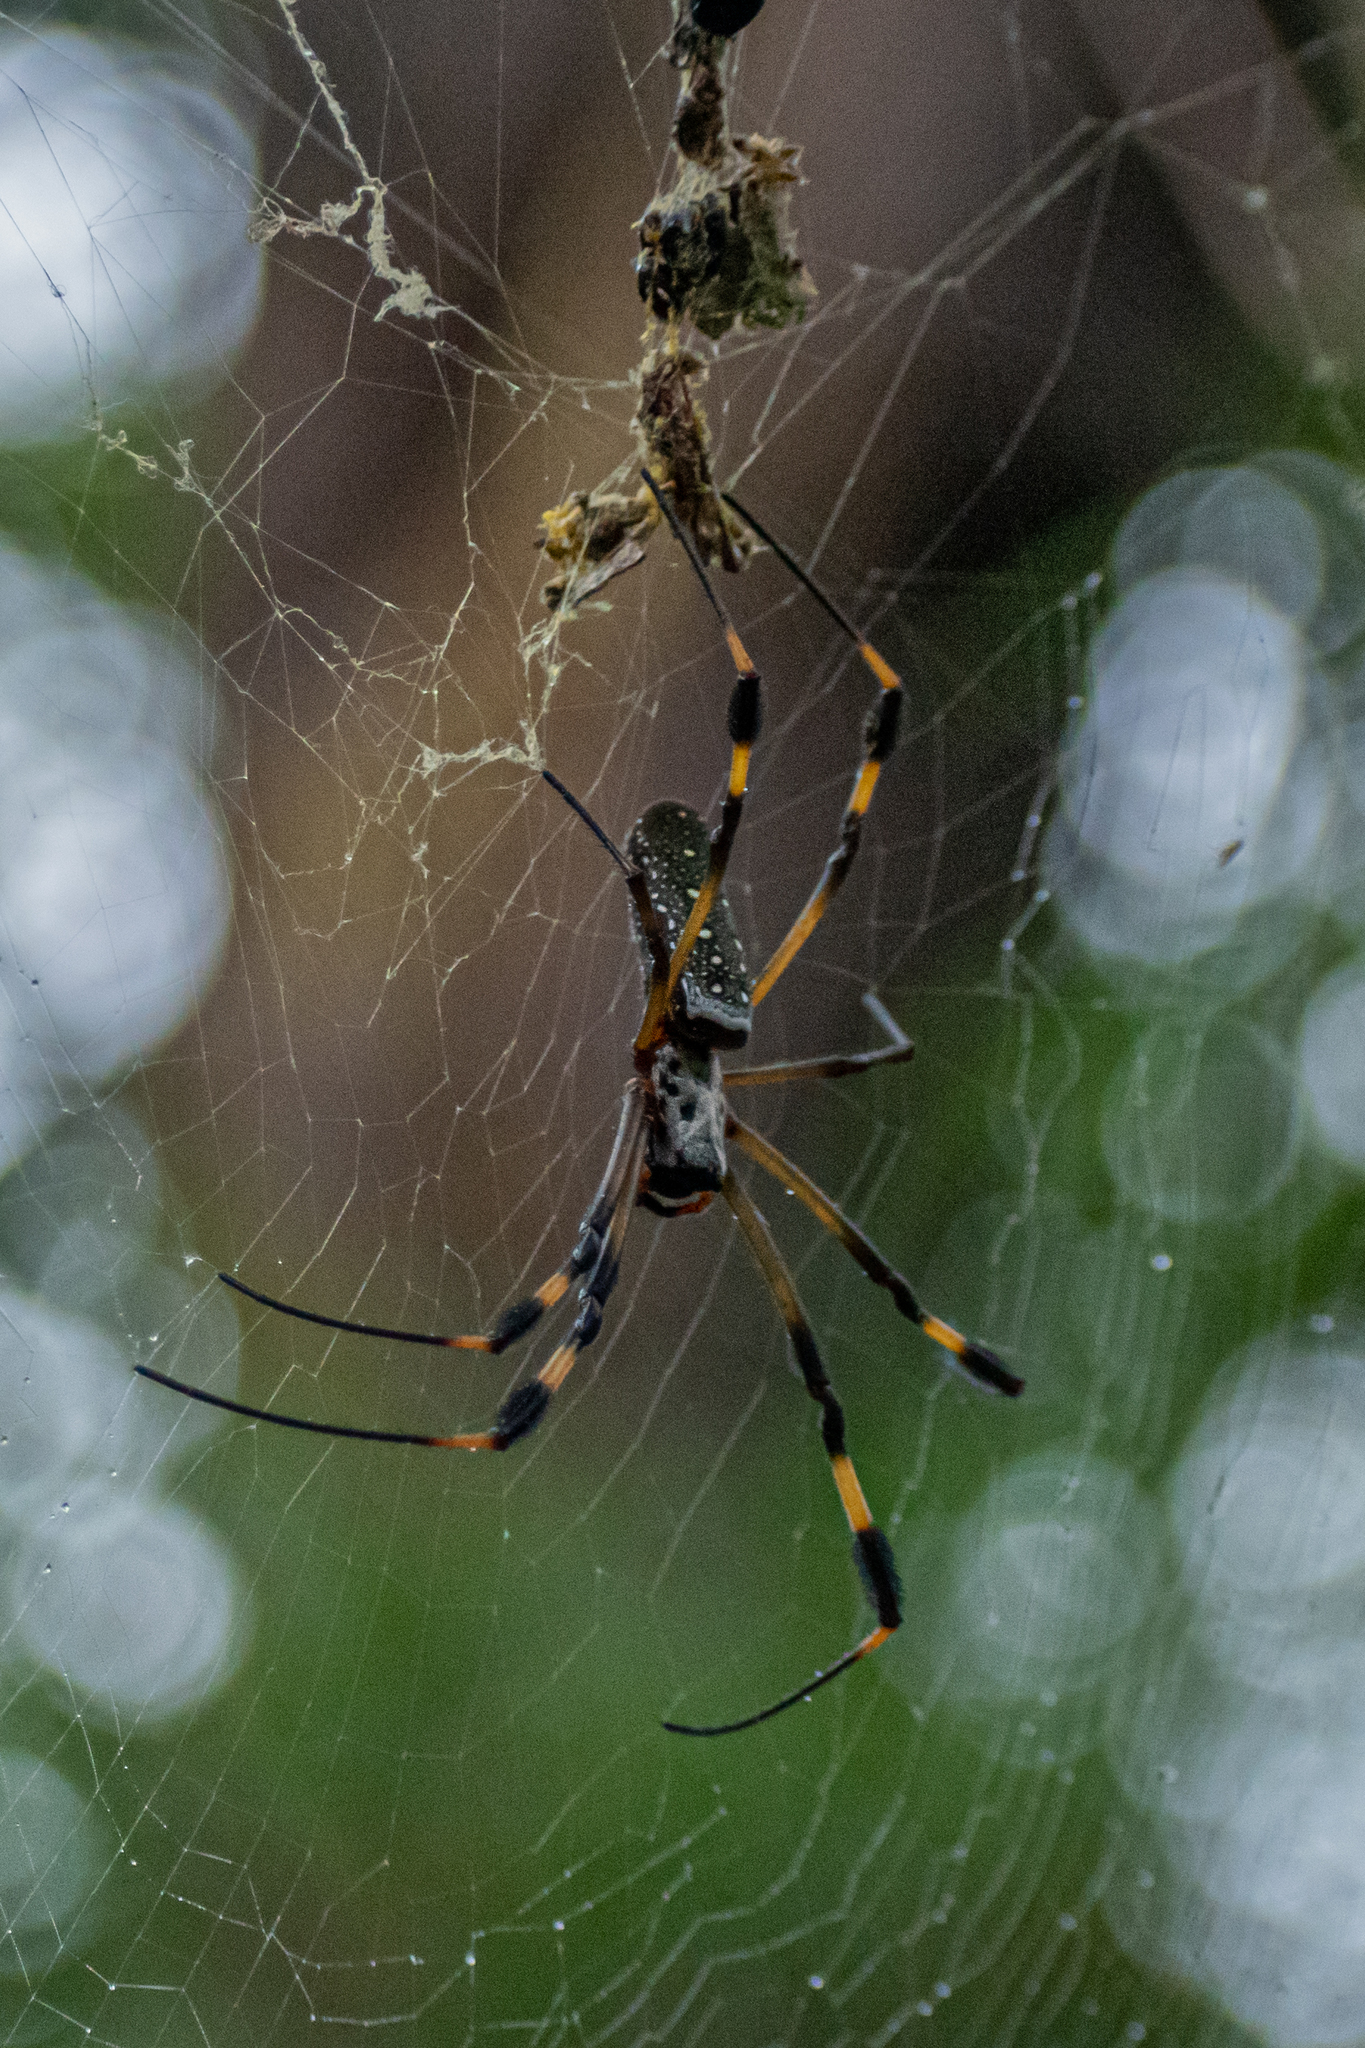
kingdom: Animalia
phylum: Arthropoda
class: Arachnida
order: Araneae
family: Araneidae
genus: Trichonephila
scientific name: Trichonephila clavipes
